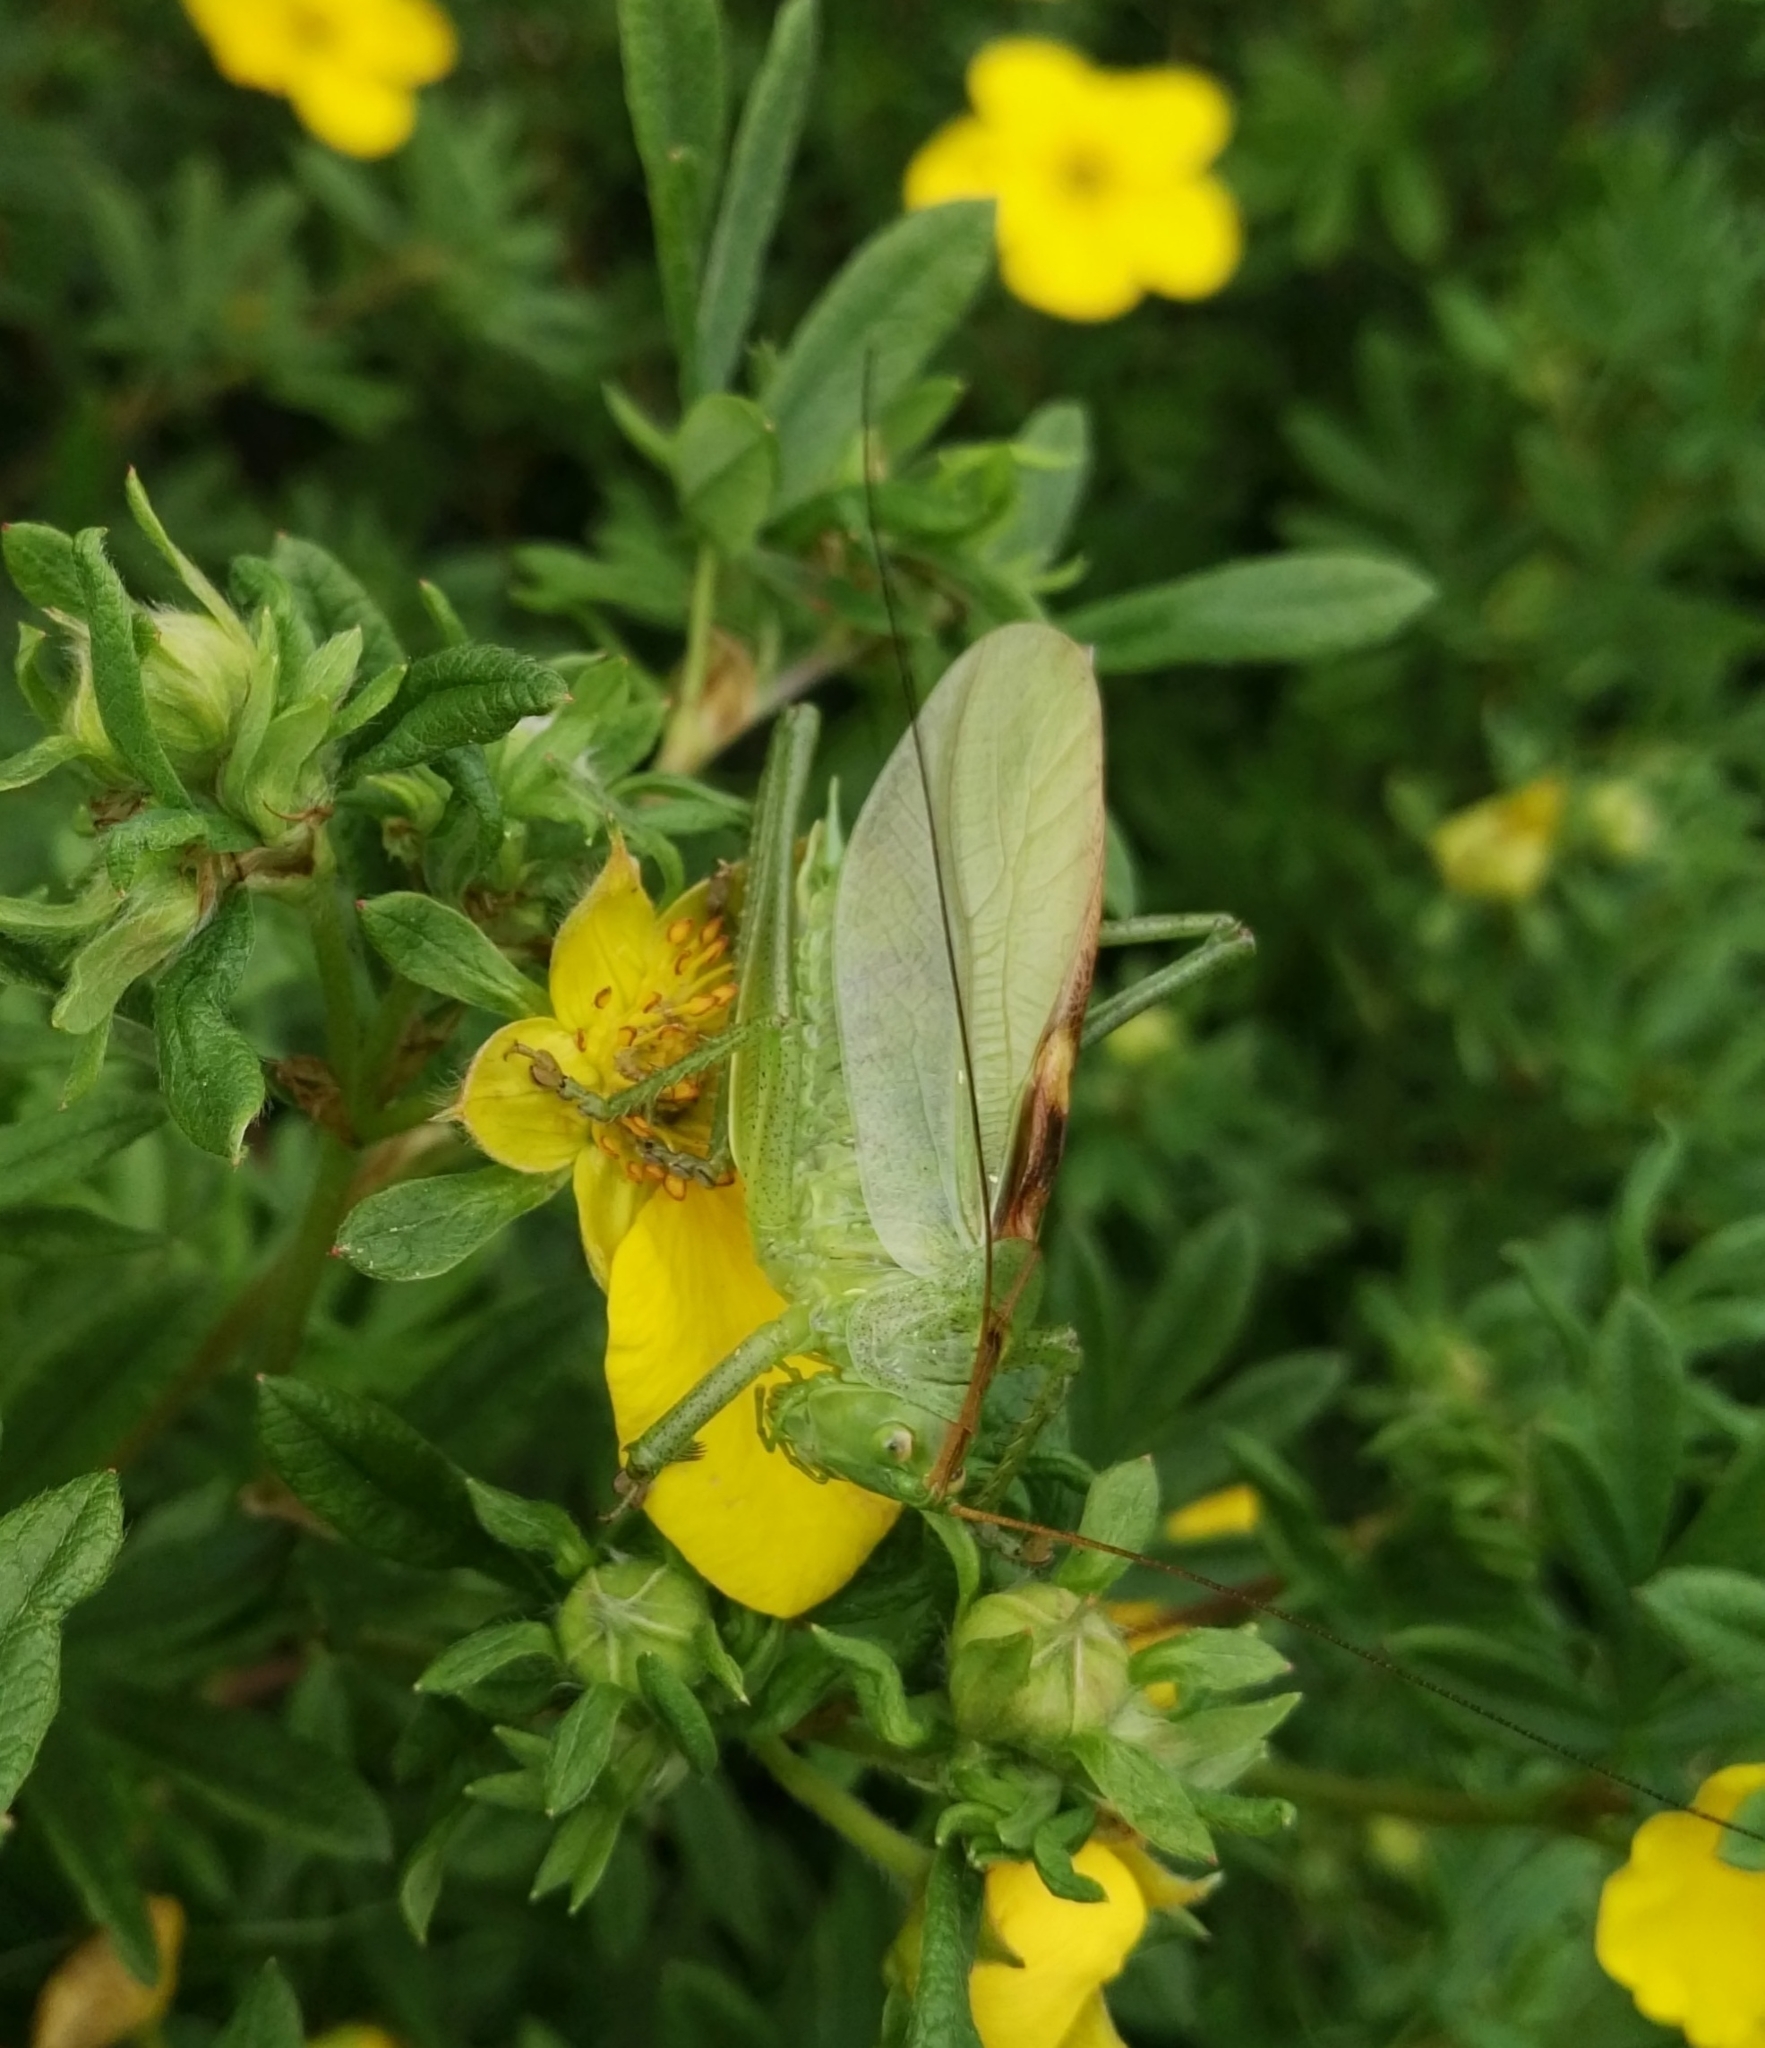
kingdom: Animalia
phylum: Arthropoda
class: Insecta
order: Orthoptera
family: Tettigoniidae
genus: Tettigonia
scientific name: Tettigonia cantans
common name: Upland green bush-cricket
